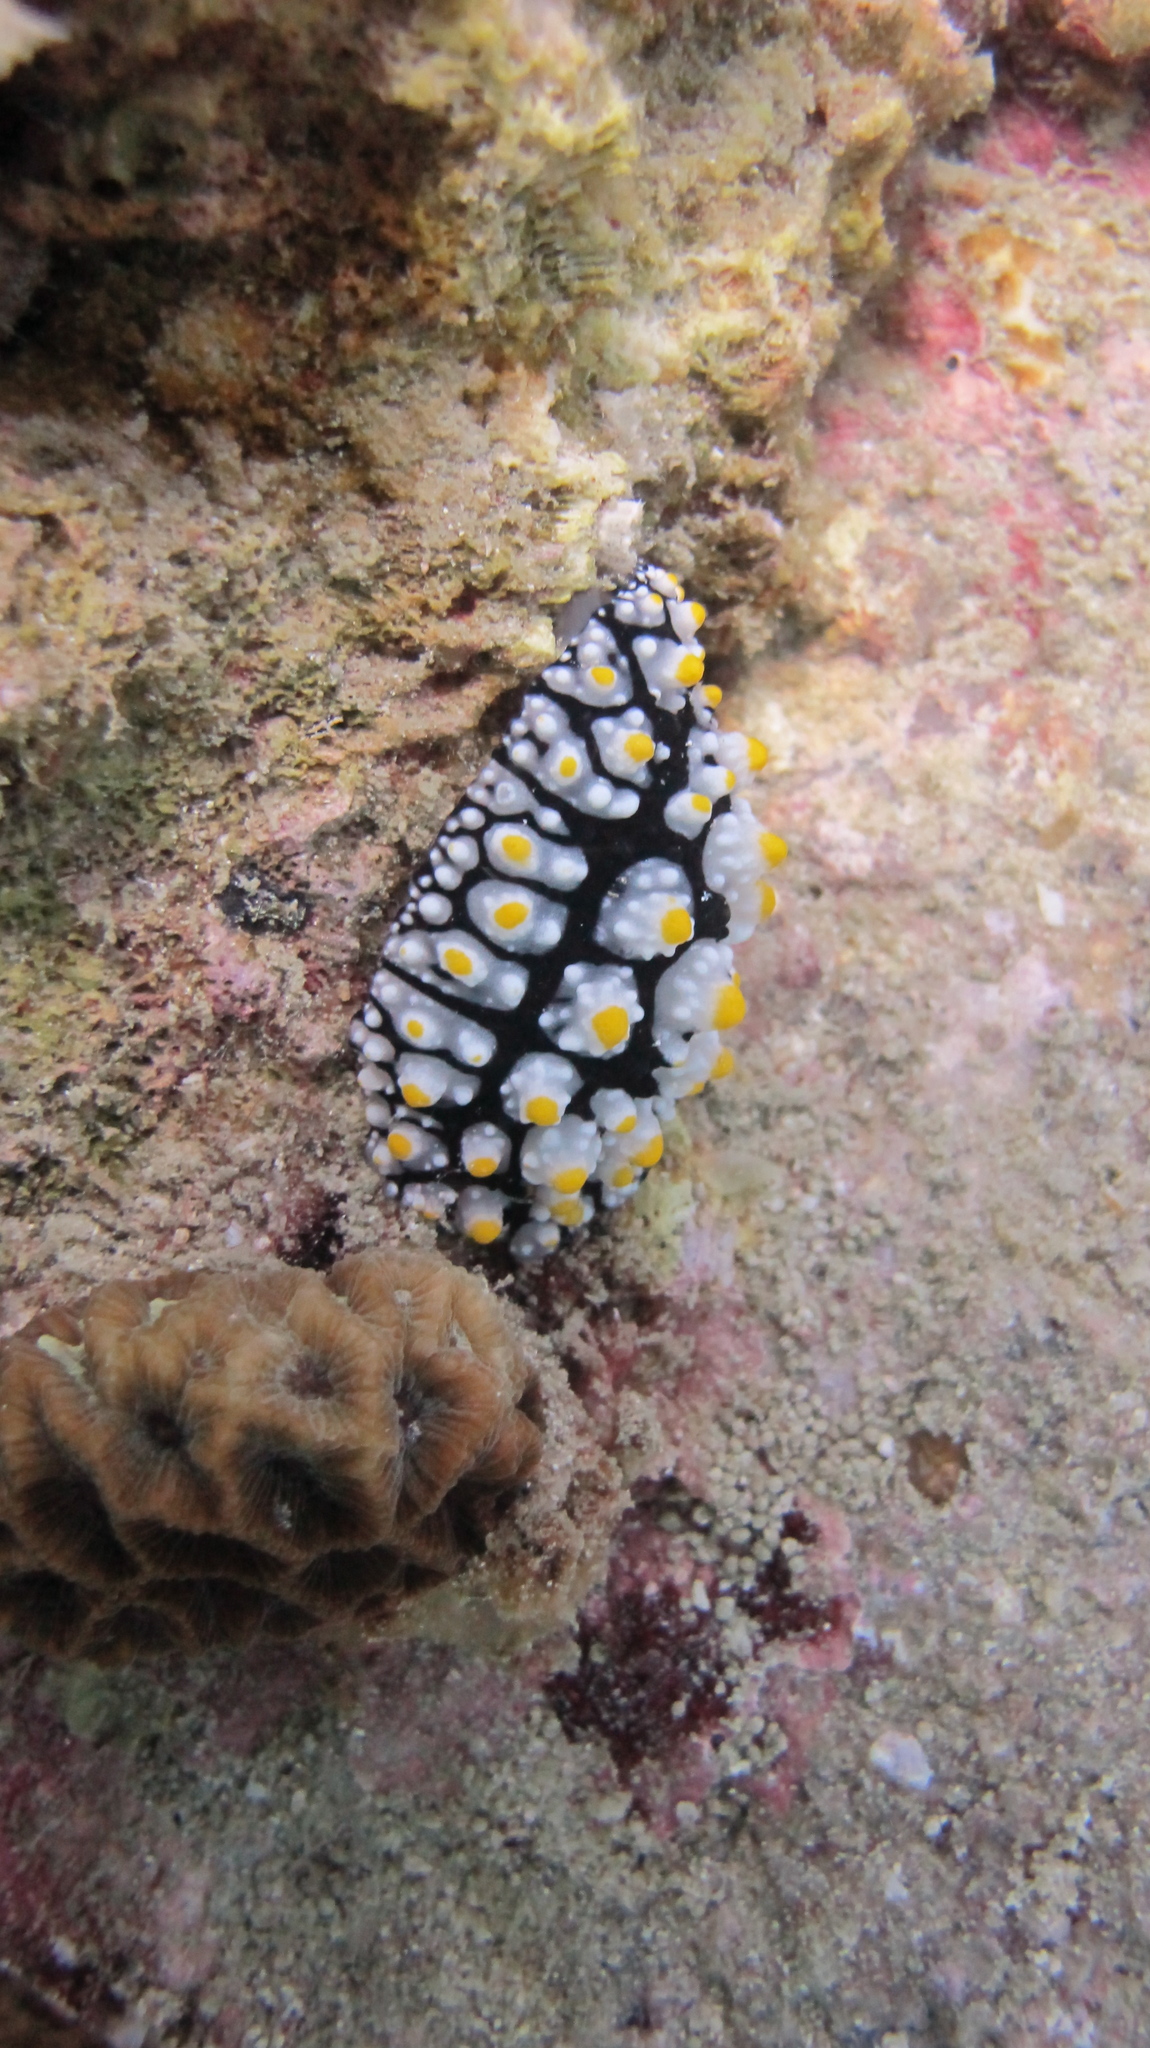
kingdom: Animalia
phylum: Mollusca
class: Gastropoda
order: Nudibranchia
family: Phyllidiidae
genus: Phyllidia
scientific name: Phyllidia elegans
